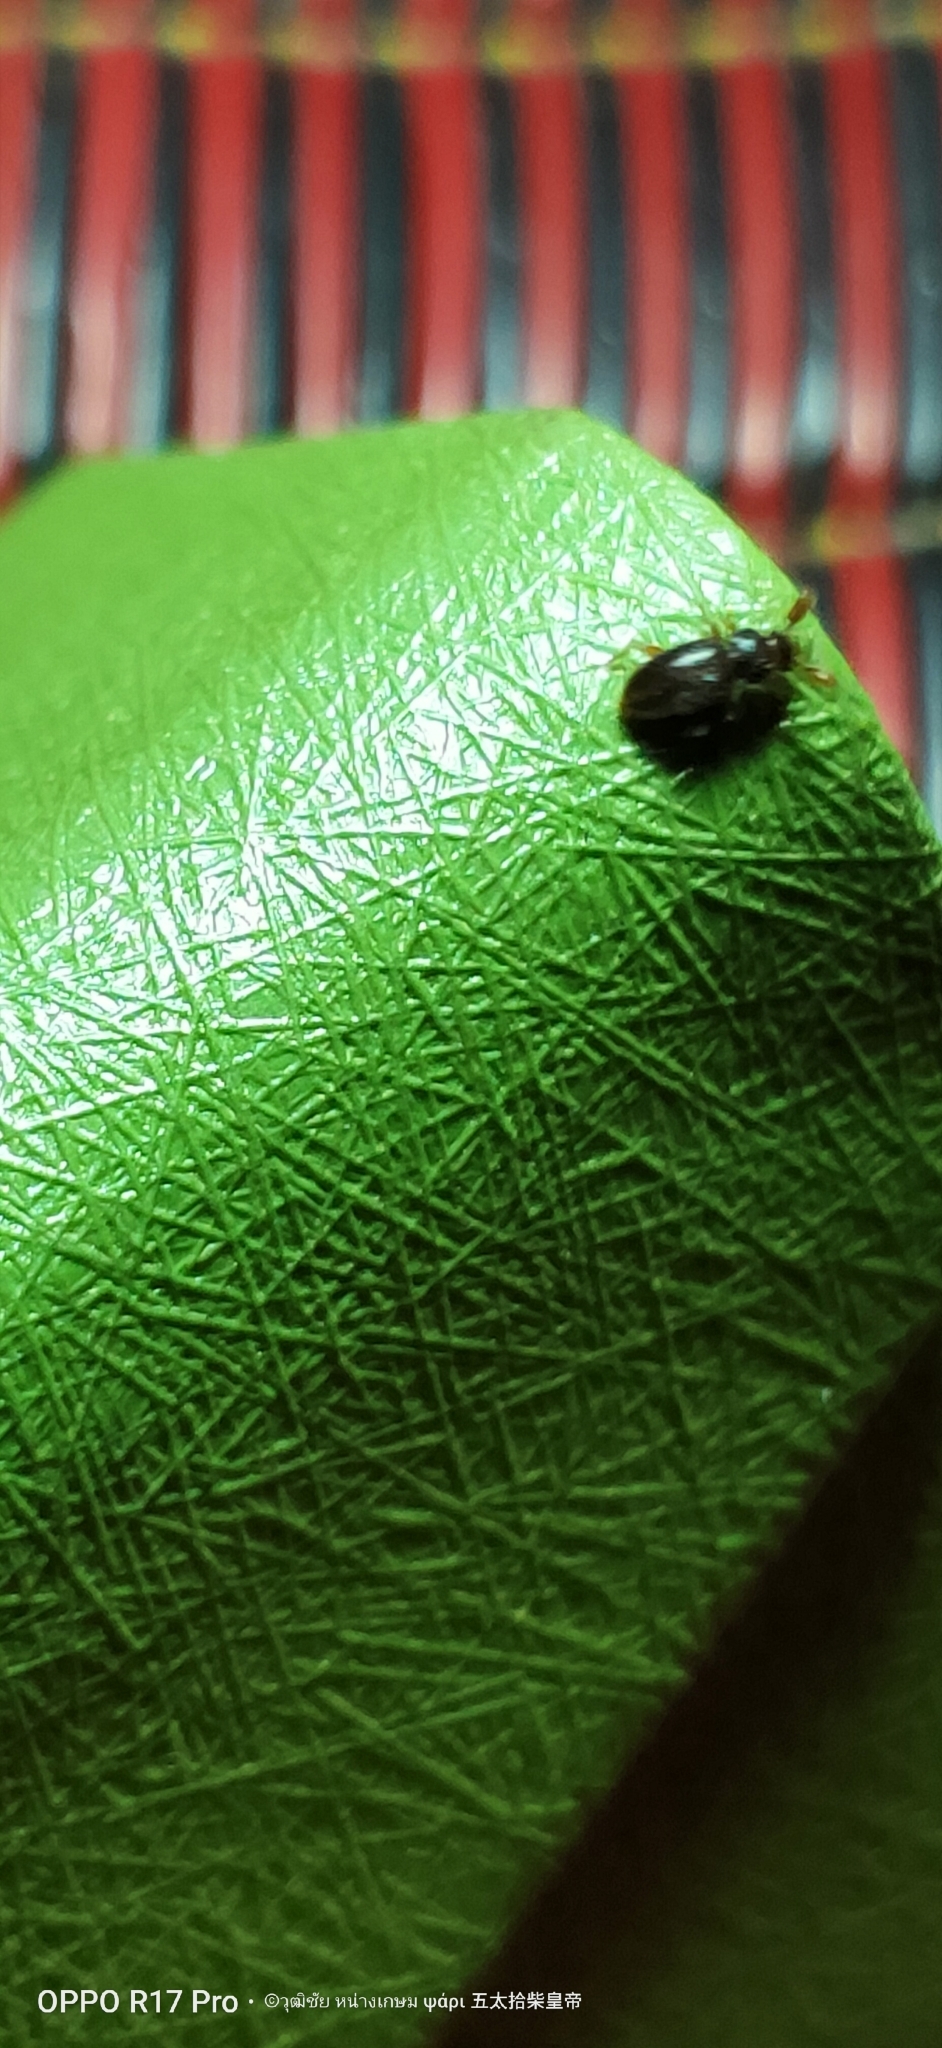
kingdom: Animalia
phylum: Arthropoda
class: Insecta
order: Coleoptera
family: Endomychidae
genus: Trochoideus
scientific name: Trochoideus desjardinsi
